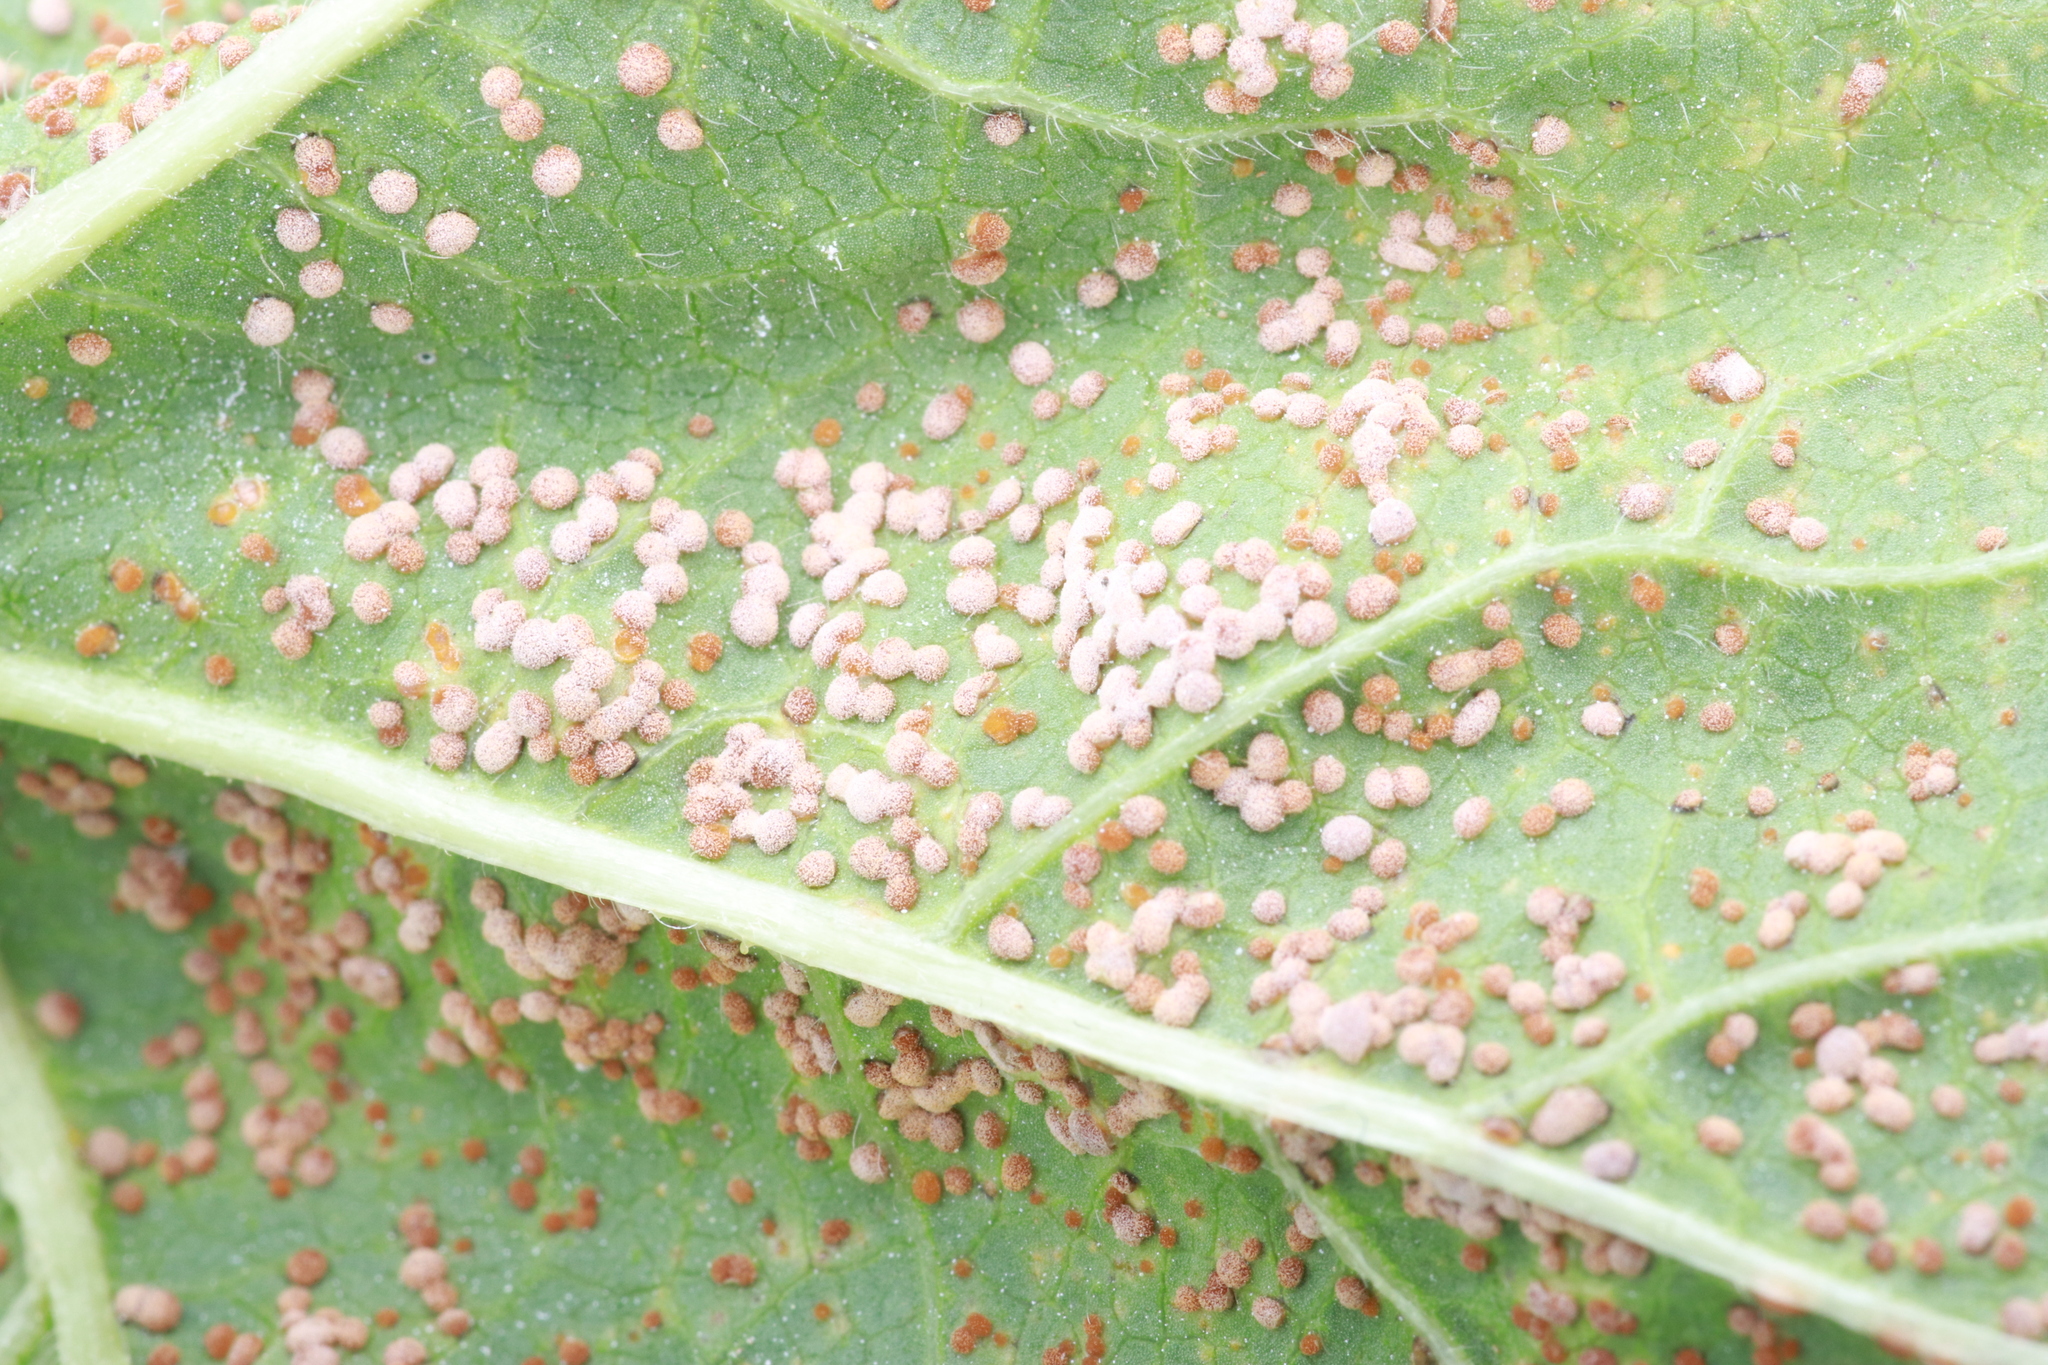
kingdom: Fungi
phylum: Basidiomycota
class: Pucciniomycetes
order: Pucciniales
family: Pucciniaceae
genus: Puccinia
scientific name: Puccinia malvacearum
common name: Hollyhock rust
